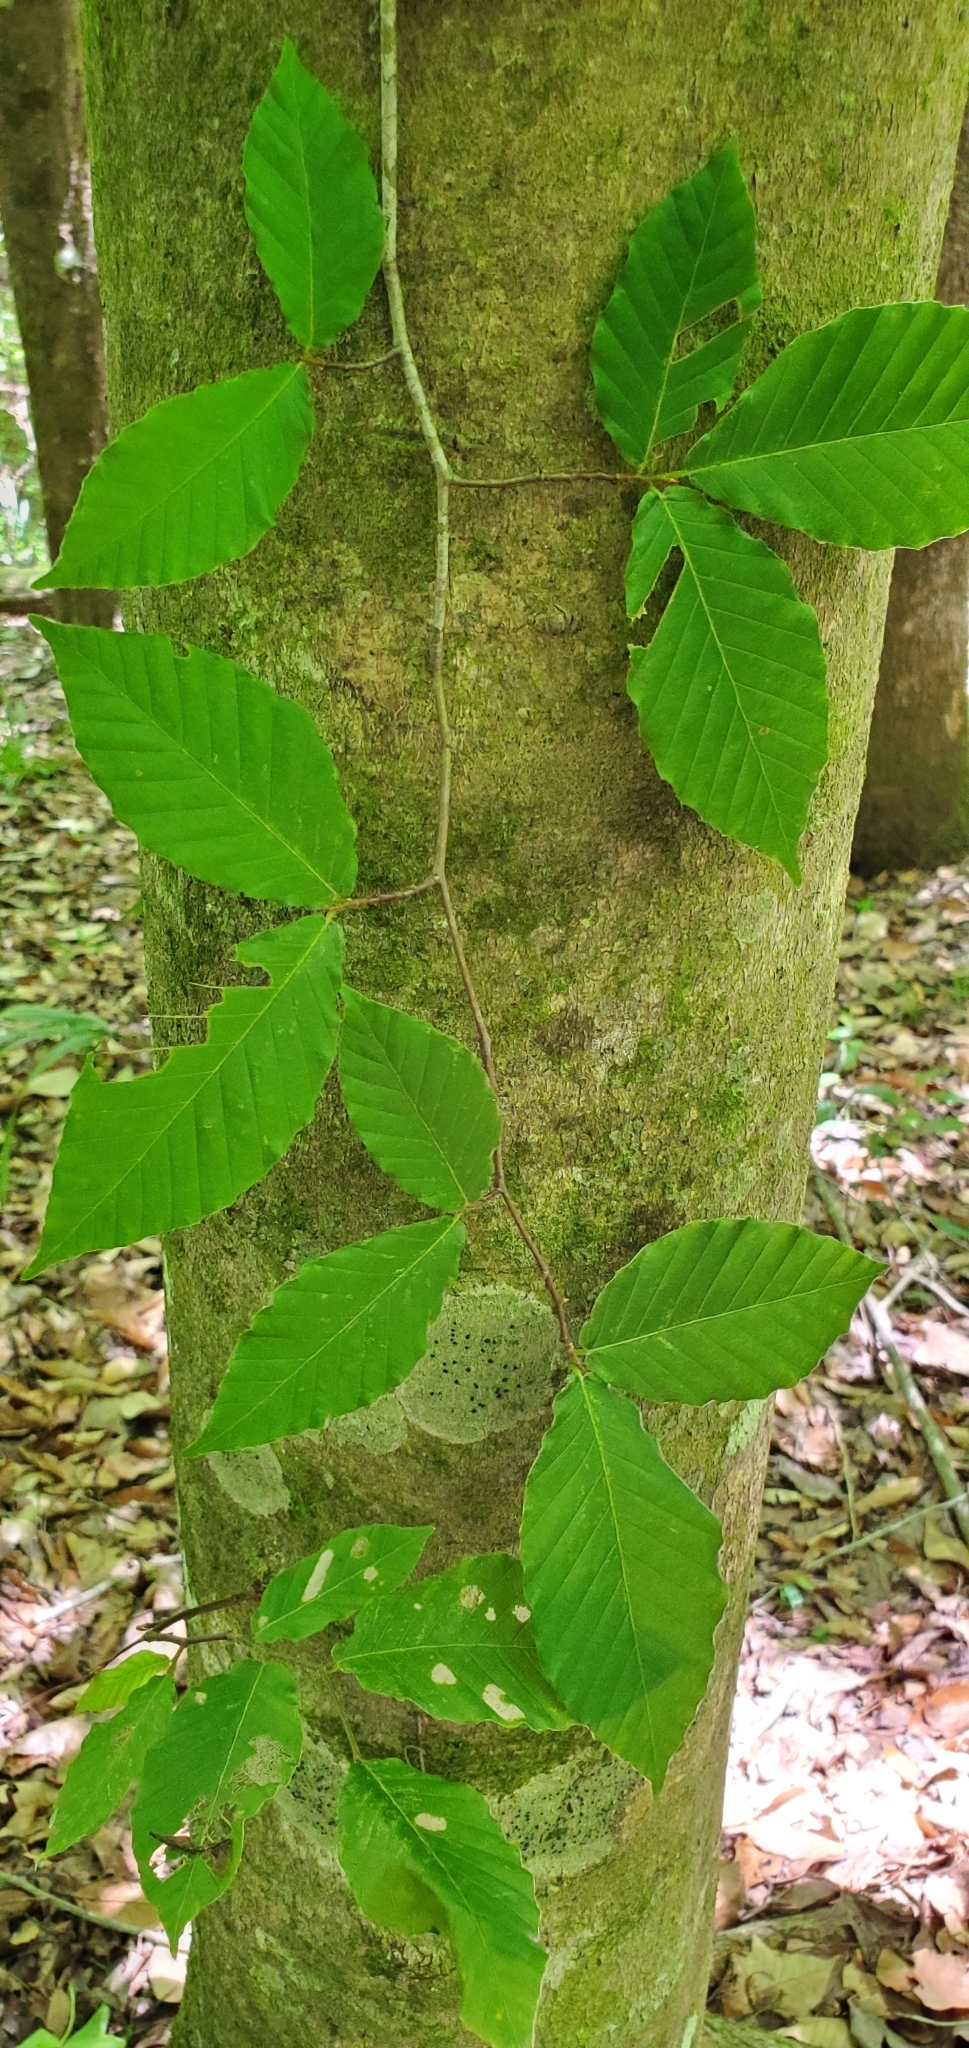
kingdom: Plantae
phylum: Tracheophyta
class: Magnoliopsida
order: Fagales
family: Fagaceae
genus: Fagus
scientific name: Fagus grandifolia
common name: American beech
